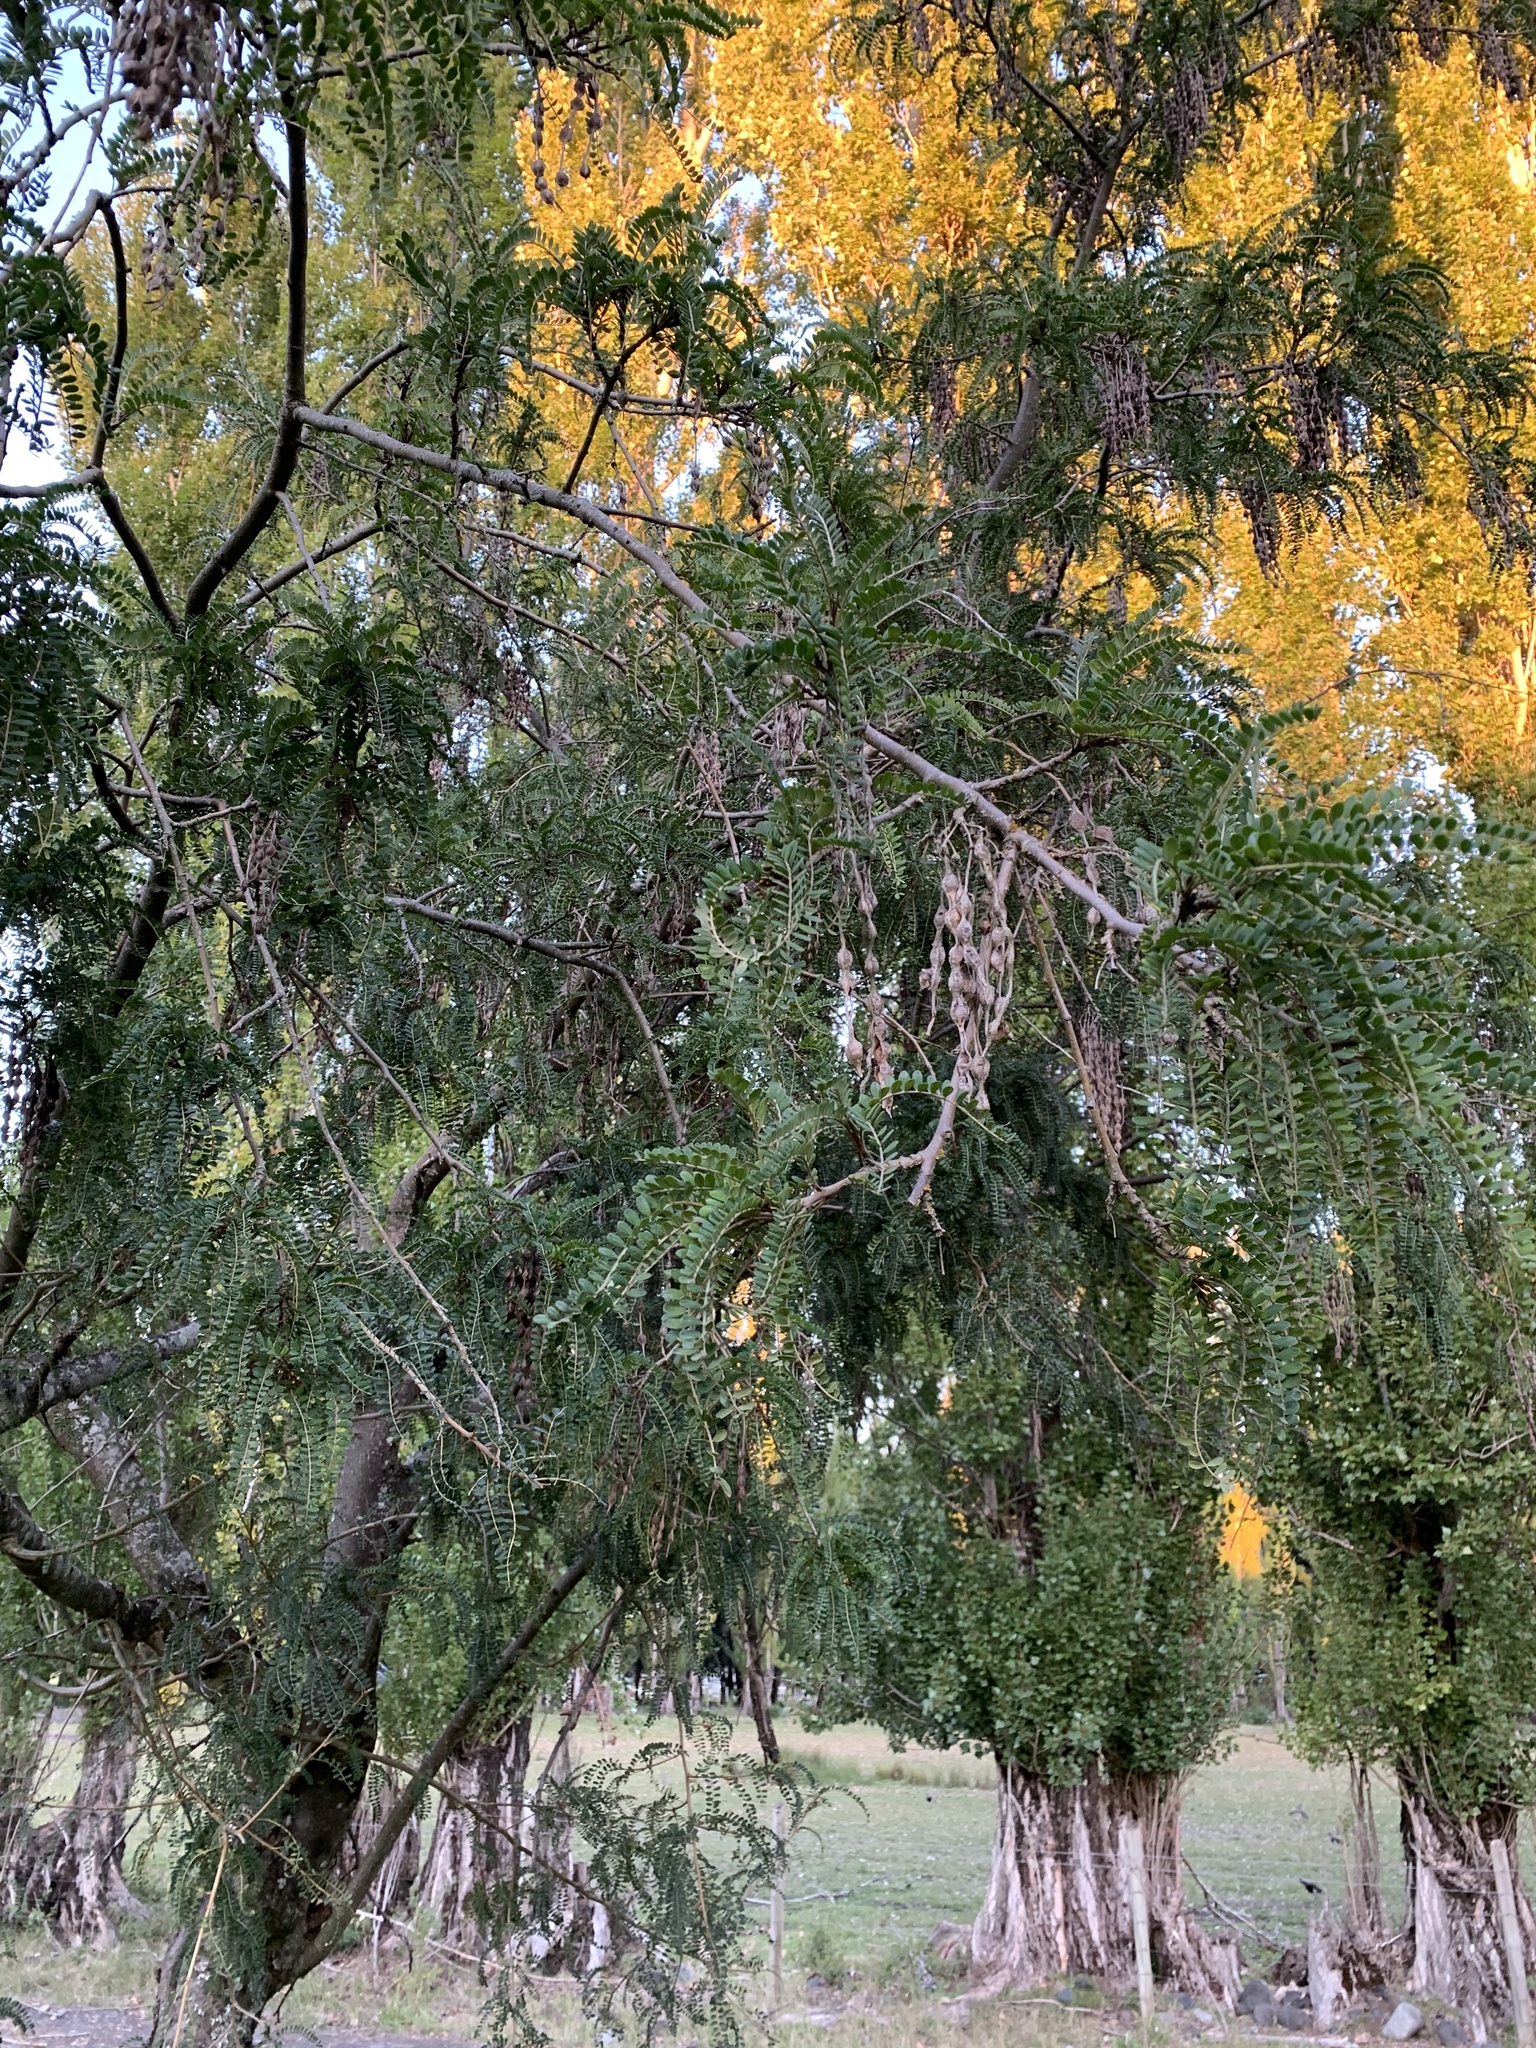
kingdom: Plantae
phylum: Tracheophyta
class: Magnoliopsida
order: Fabales
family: Fabaceae
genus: Sophora
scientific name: Sophora cassioides
